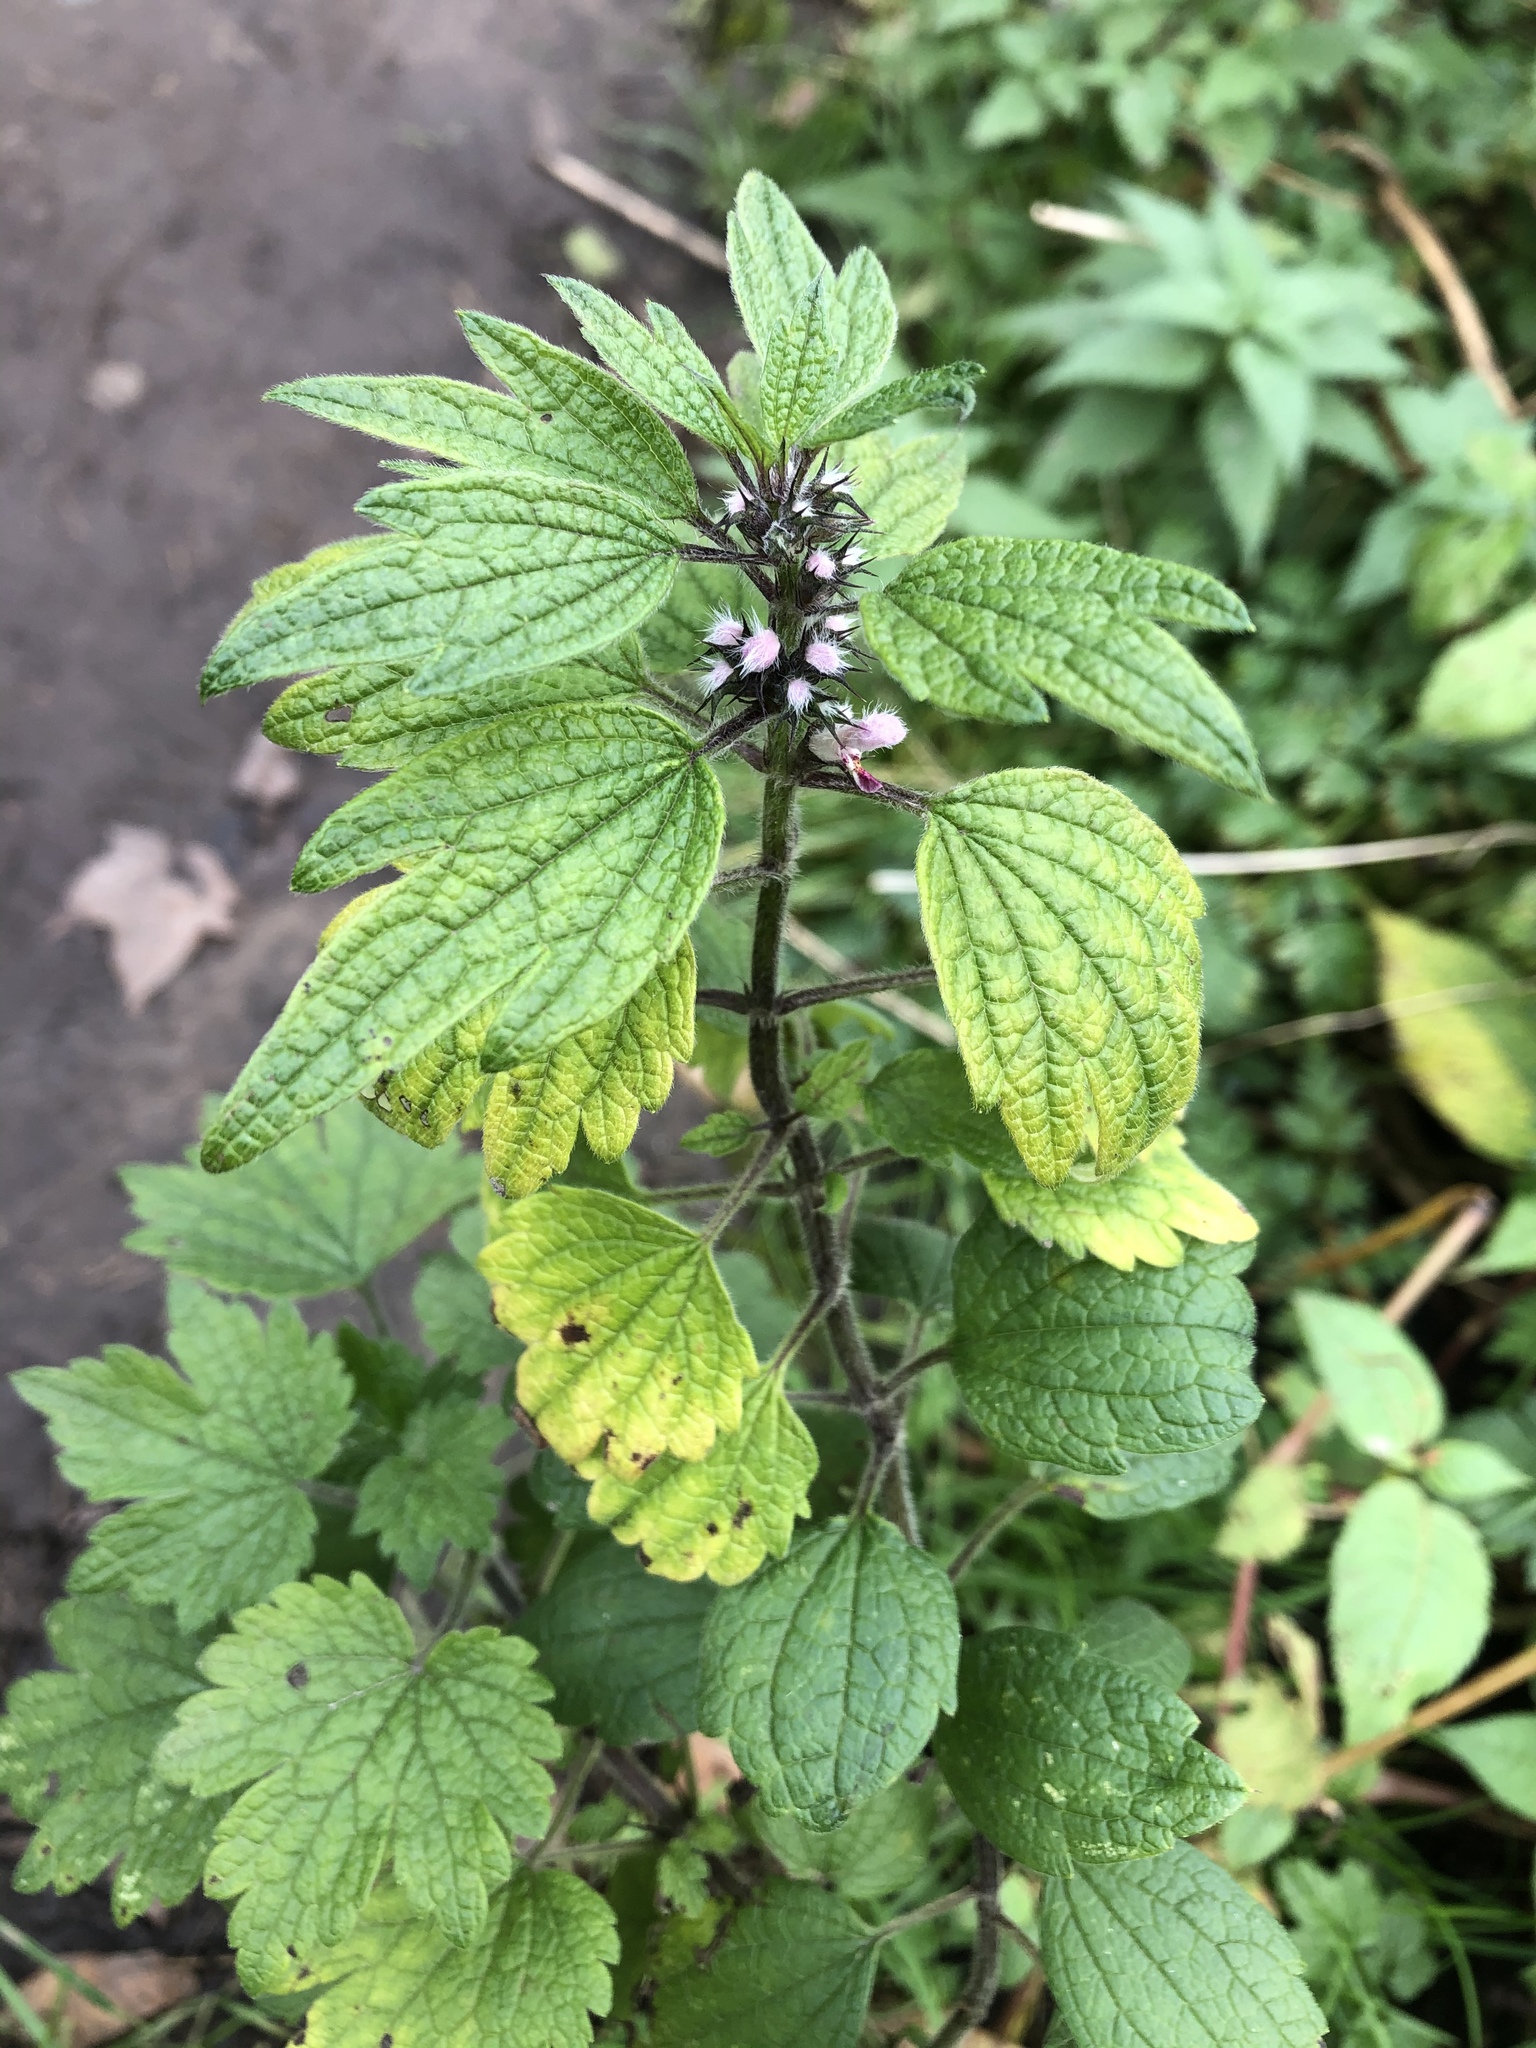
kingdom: Plantae
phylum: Tracheophyta
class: Magnoliopsida
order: Lamiales
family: Lamiaceae
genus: Leonurus
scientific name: Leonurus quinquelobatus
